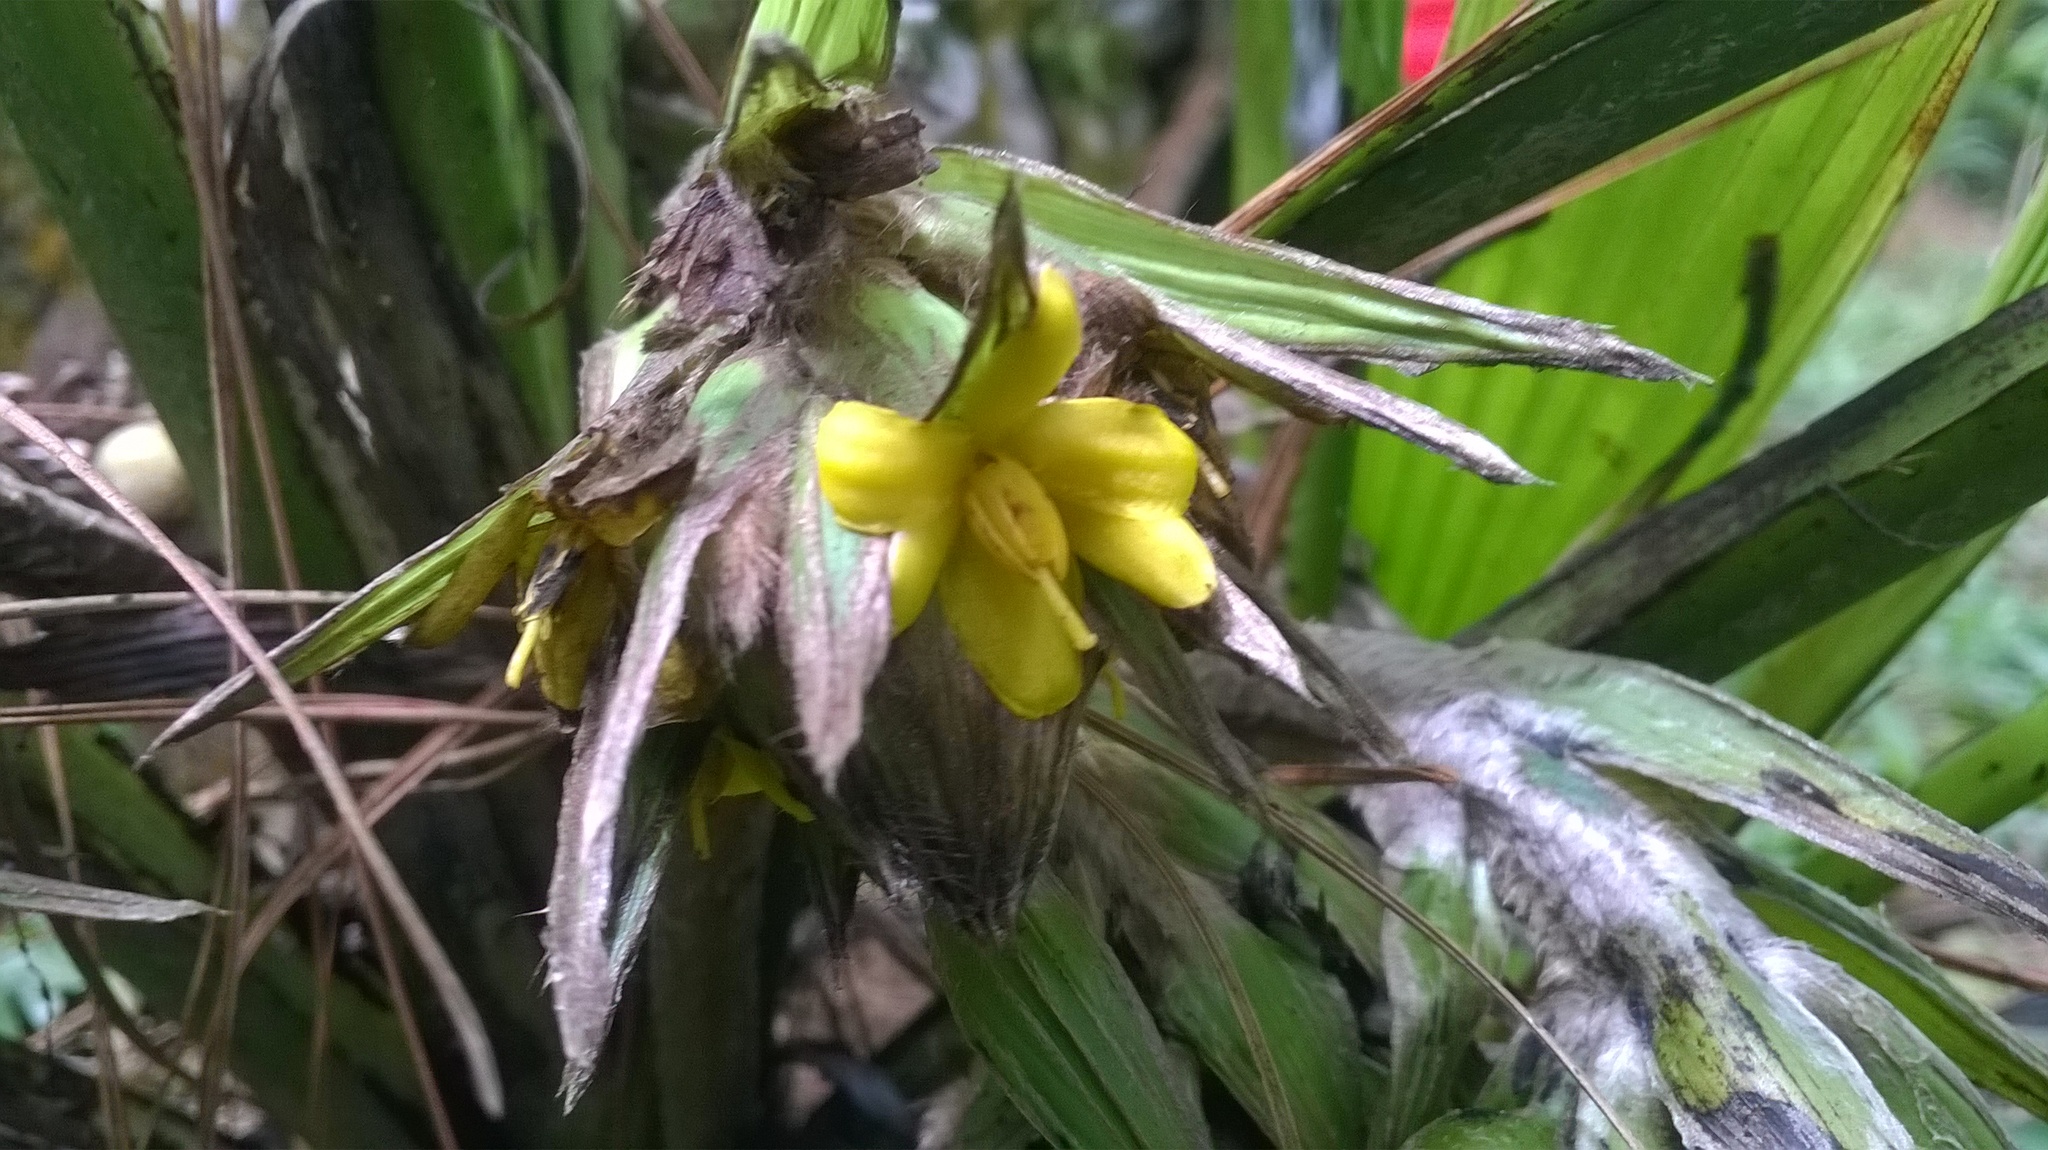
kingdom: Plantae
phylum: Tracheophyta
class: Liliopsida
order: Asparagales
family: Hypoxidaceae
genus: Curculigo
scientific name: Curculigo capitulata
